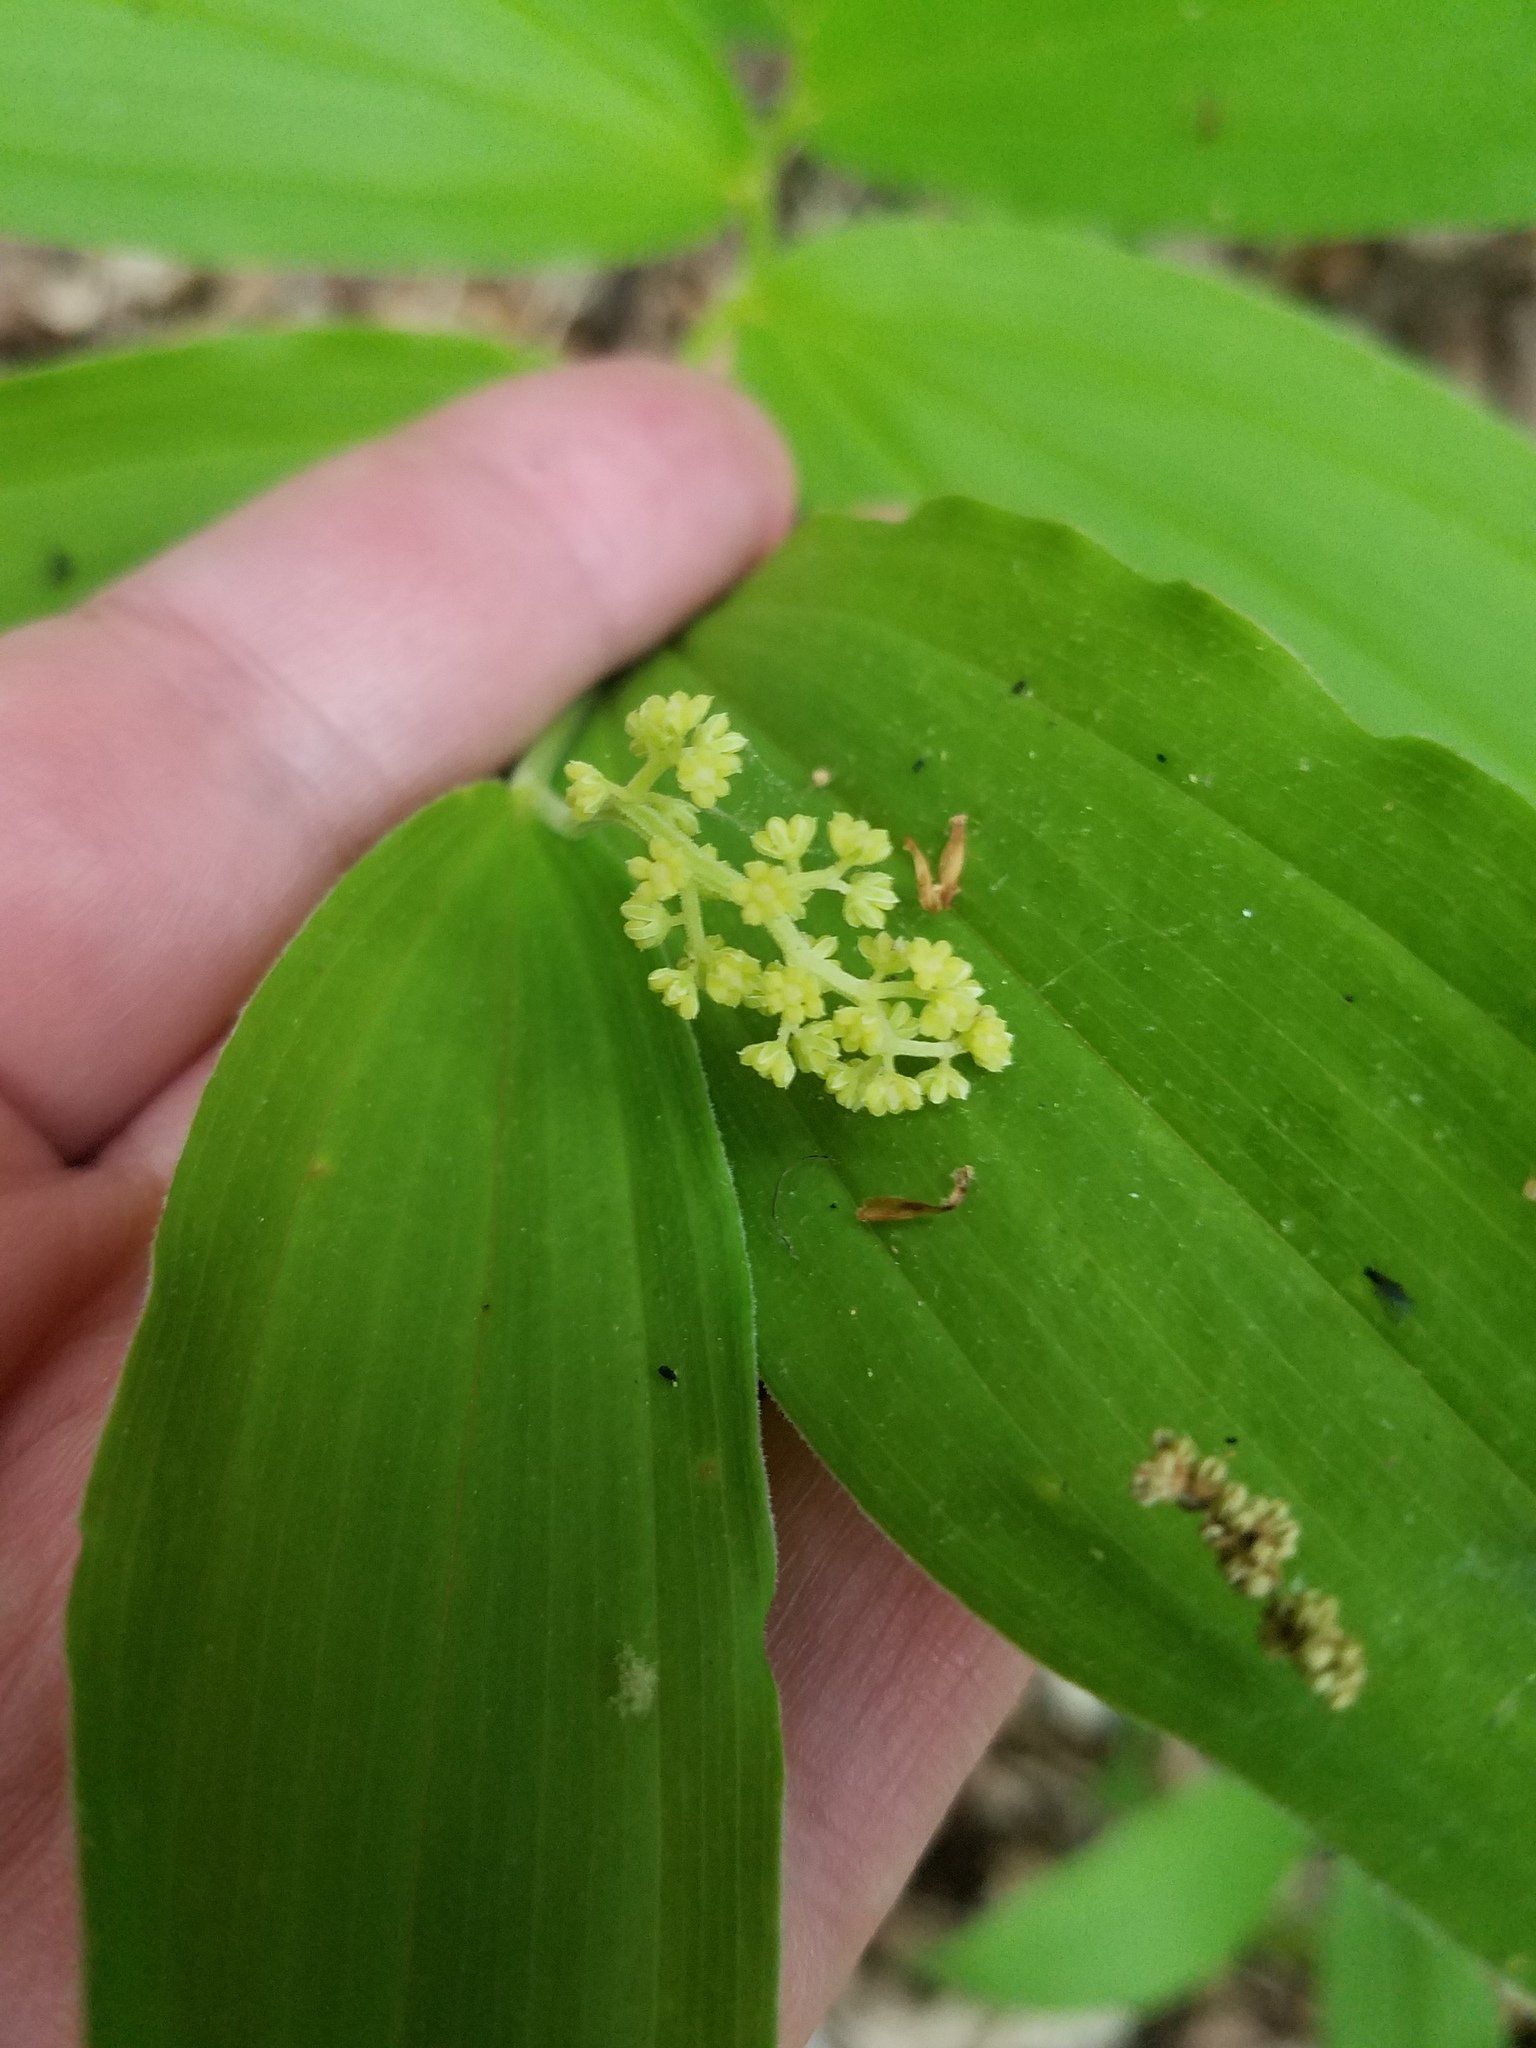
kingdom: Plantae
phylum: Tracheophyta
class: Liliopsida
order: Asparagales
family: Asparagaceae
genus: Maianthemum
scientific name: Maianthemum racemosum
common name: False spikenard
